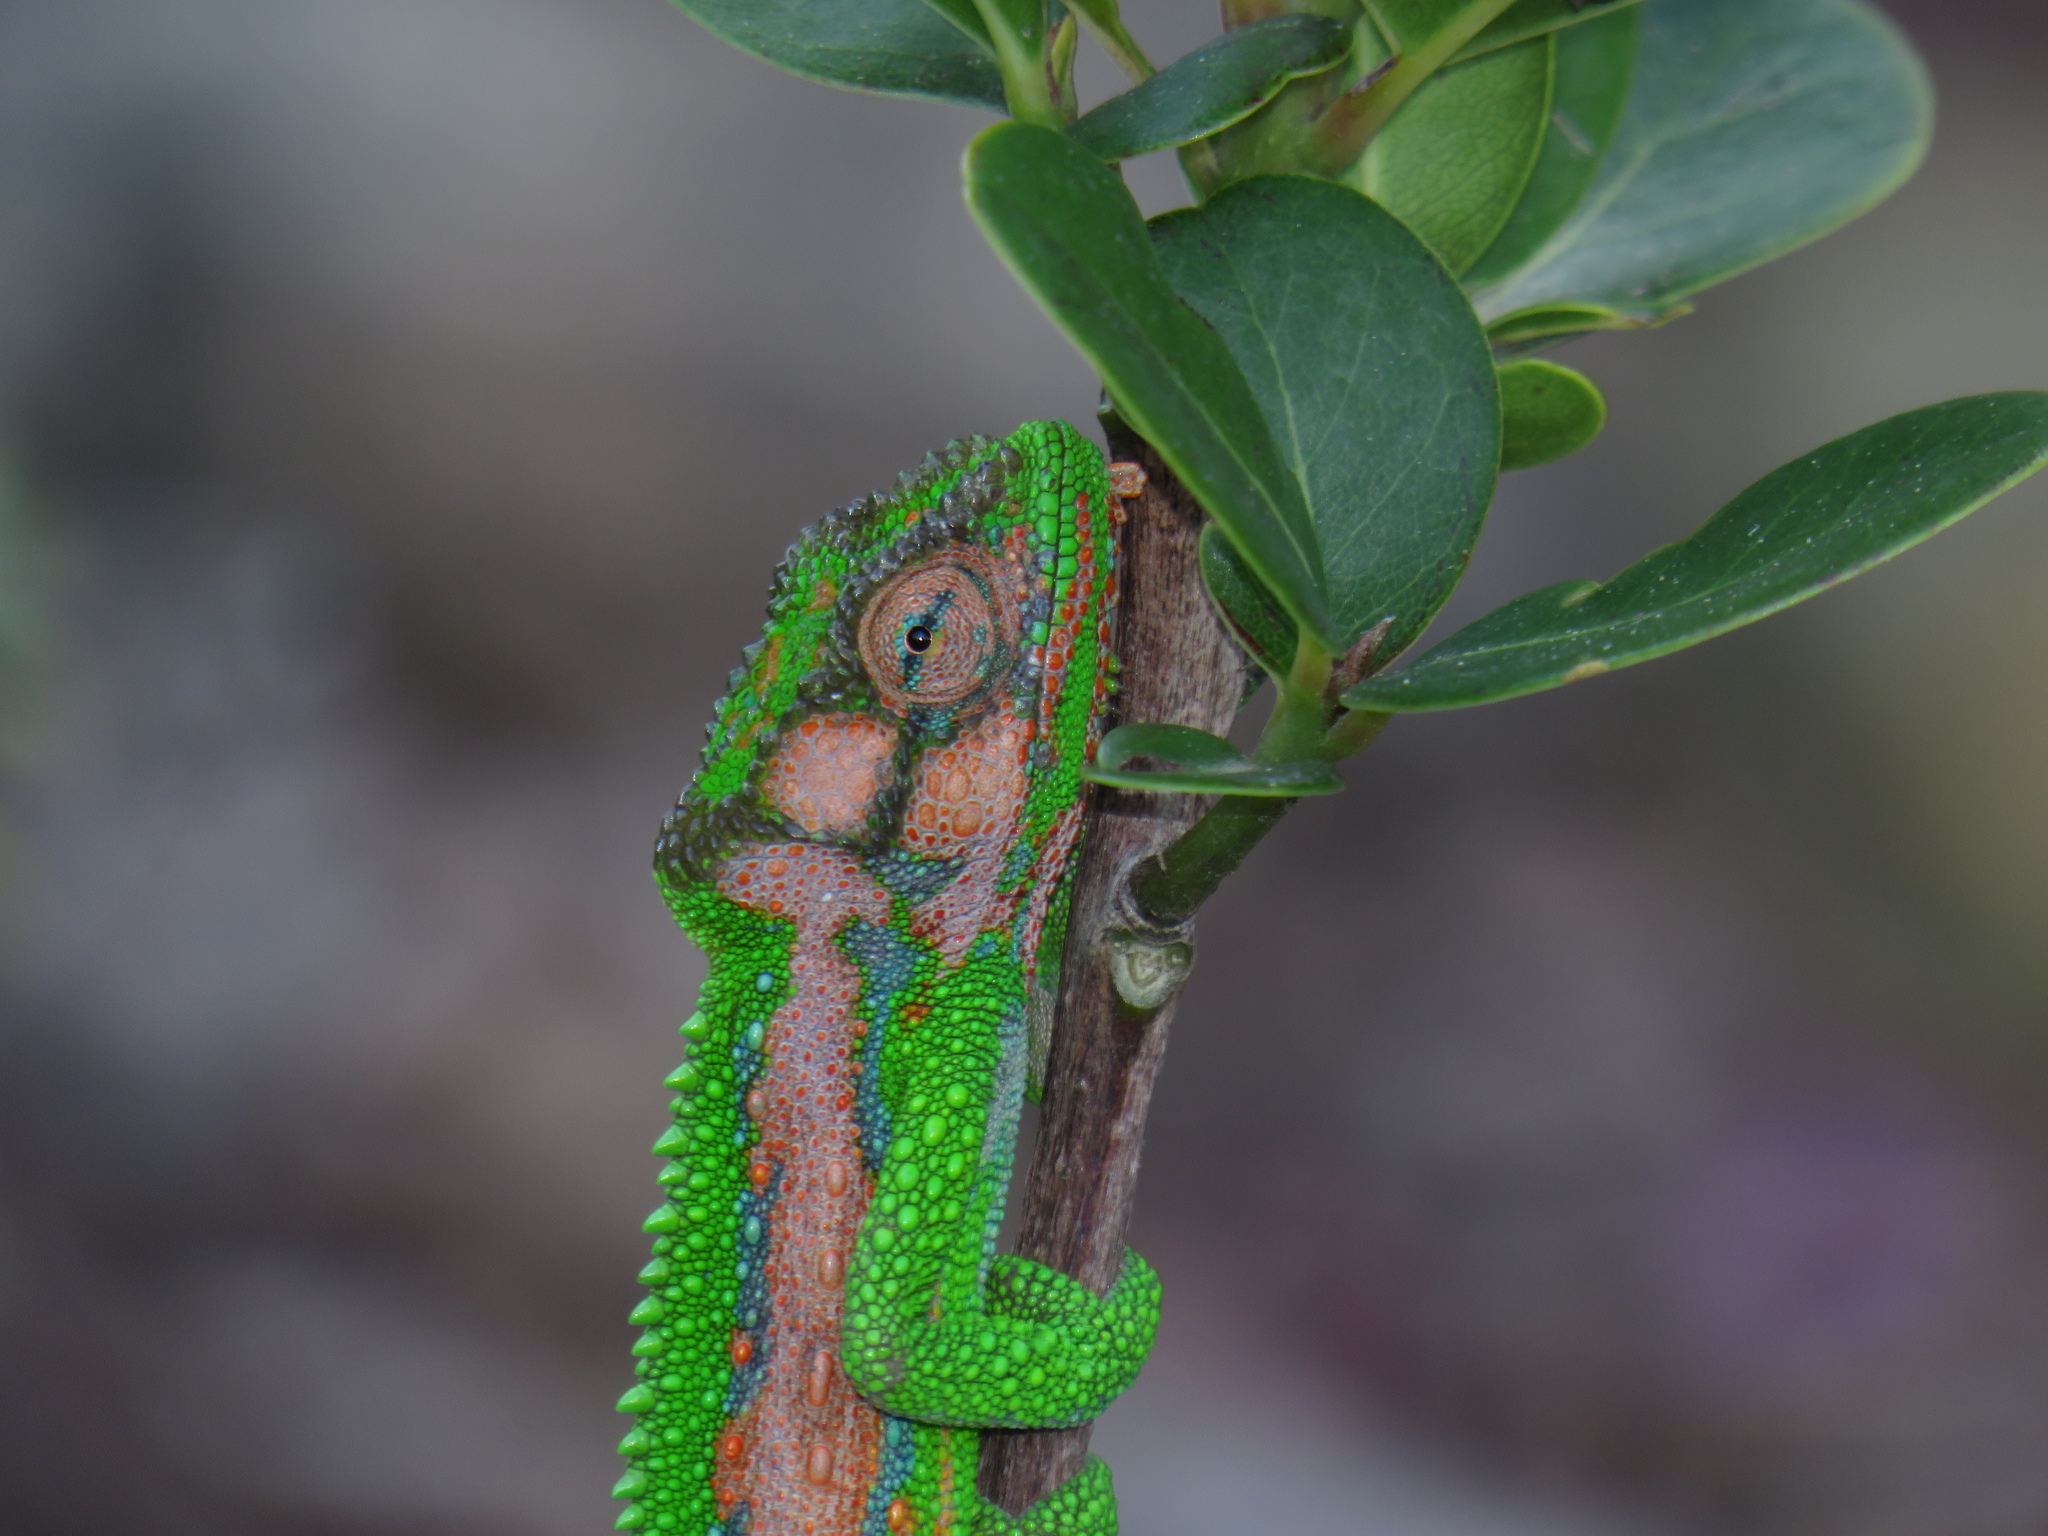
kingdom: Animalia
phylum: Chordata
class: Squamata
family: Chamaeleonidae
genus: Bradypodion
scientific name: Bradypodion pumilum
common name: Cape dwarf chameleon
